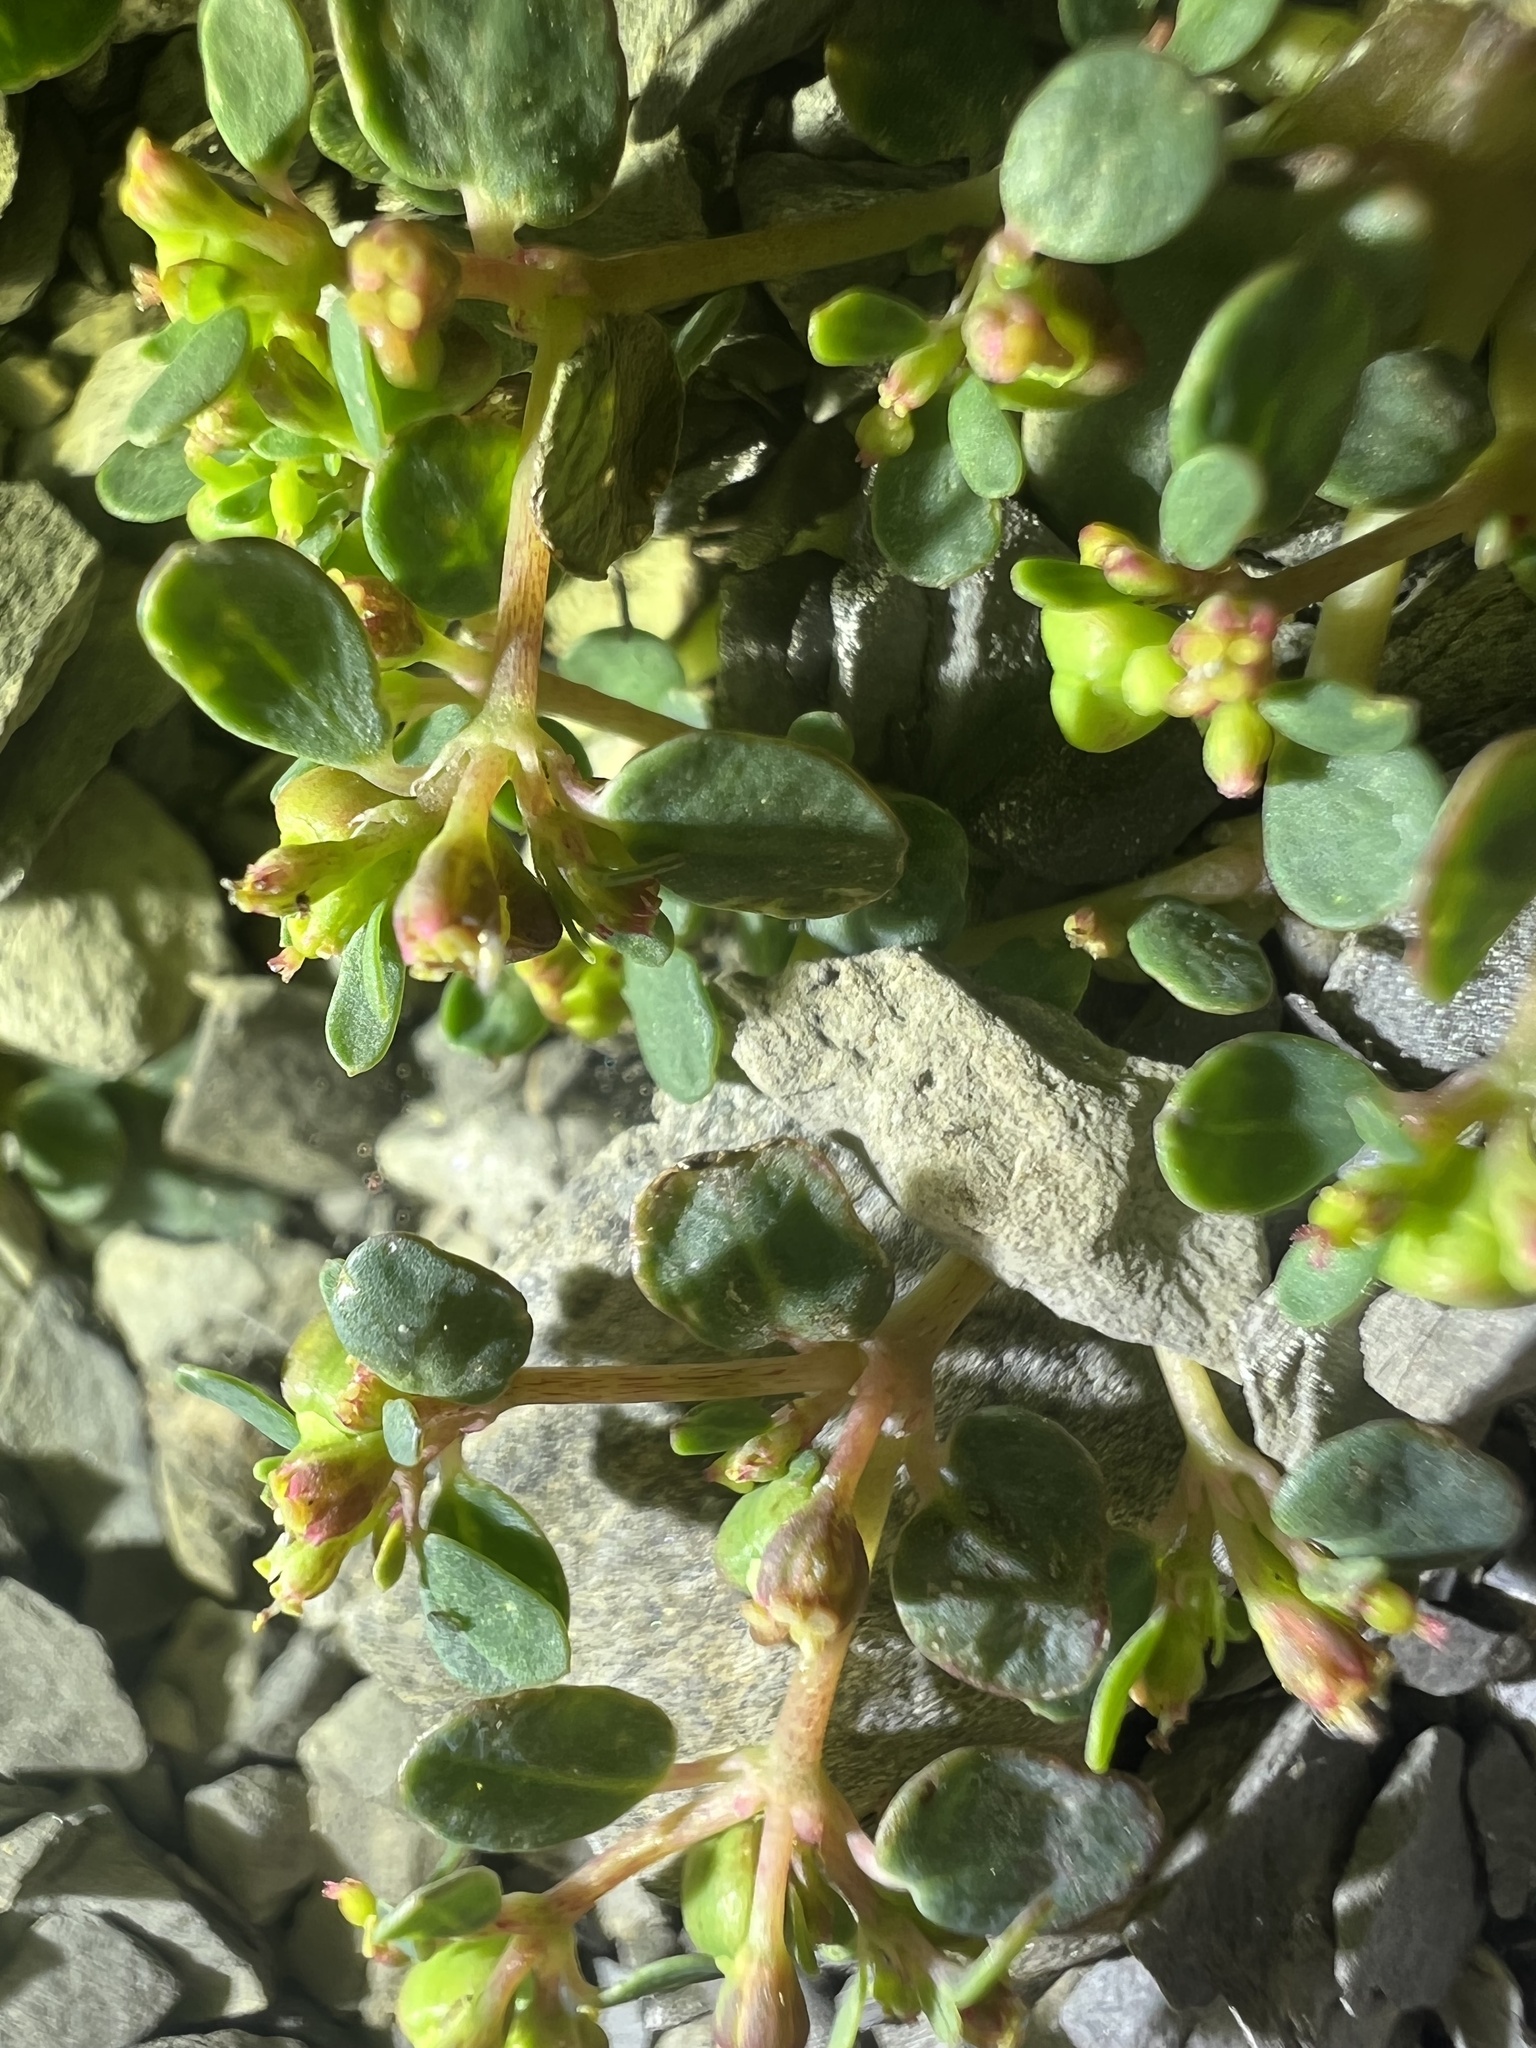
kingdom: Plantae
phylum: Tracheophyta
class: Magnoliopsida
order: Malpighiales
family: Euphorbiaceae
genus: Euphorbia
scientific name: Euphorbia cryptorubra
